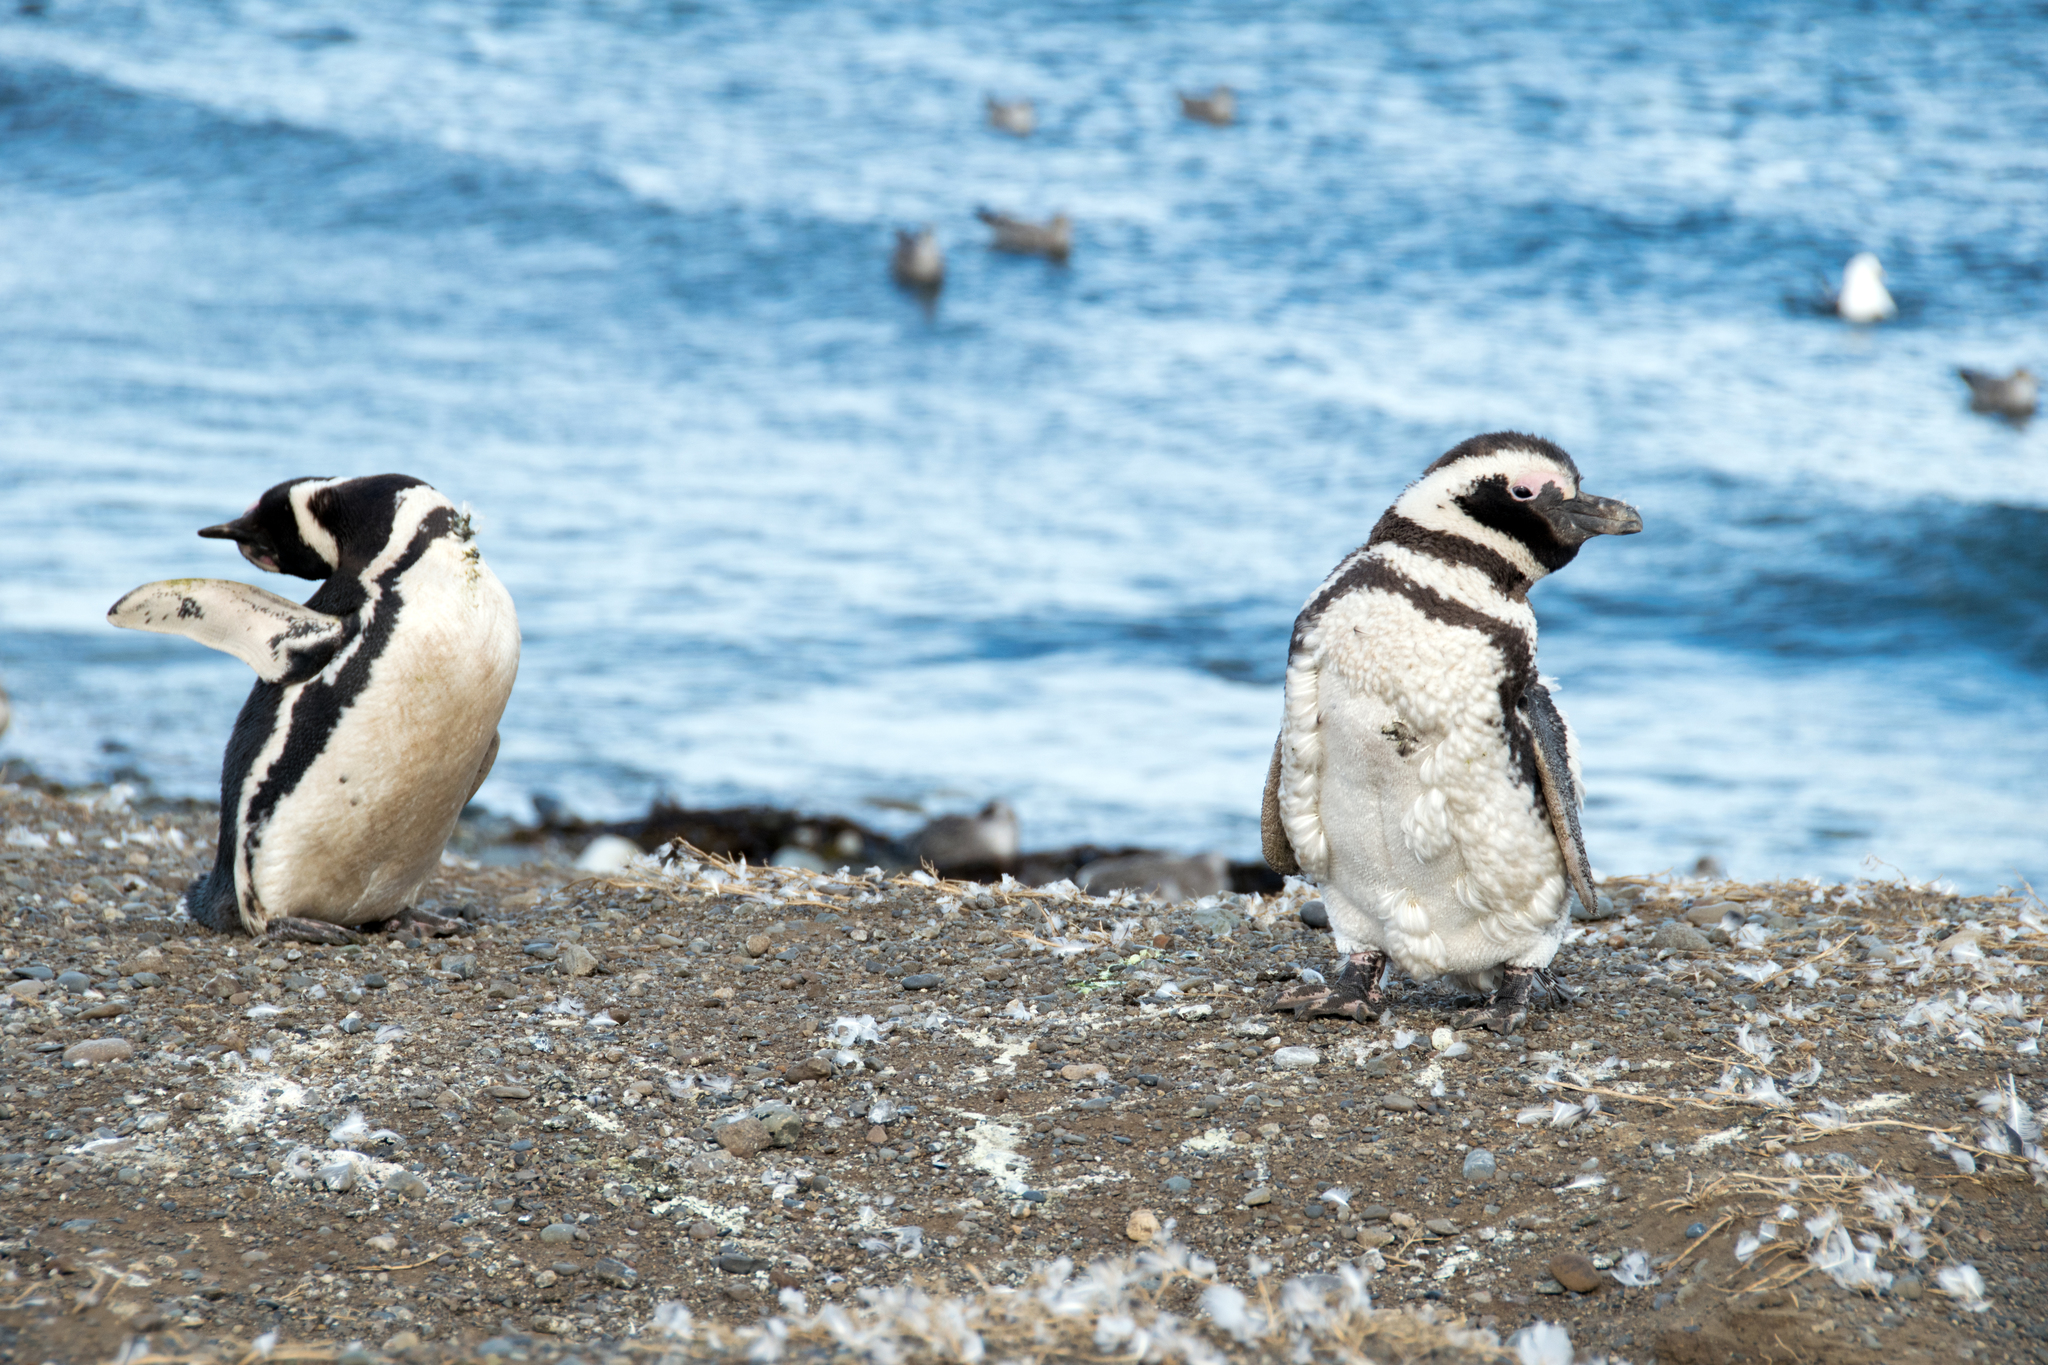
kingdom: Animalia
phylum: Chordata
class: Aves
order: Sphenisciformes
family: Spheniscidae
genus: Spheniscus
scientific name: Spheniscus magellanicus
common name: Magellanic penguin
